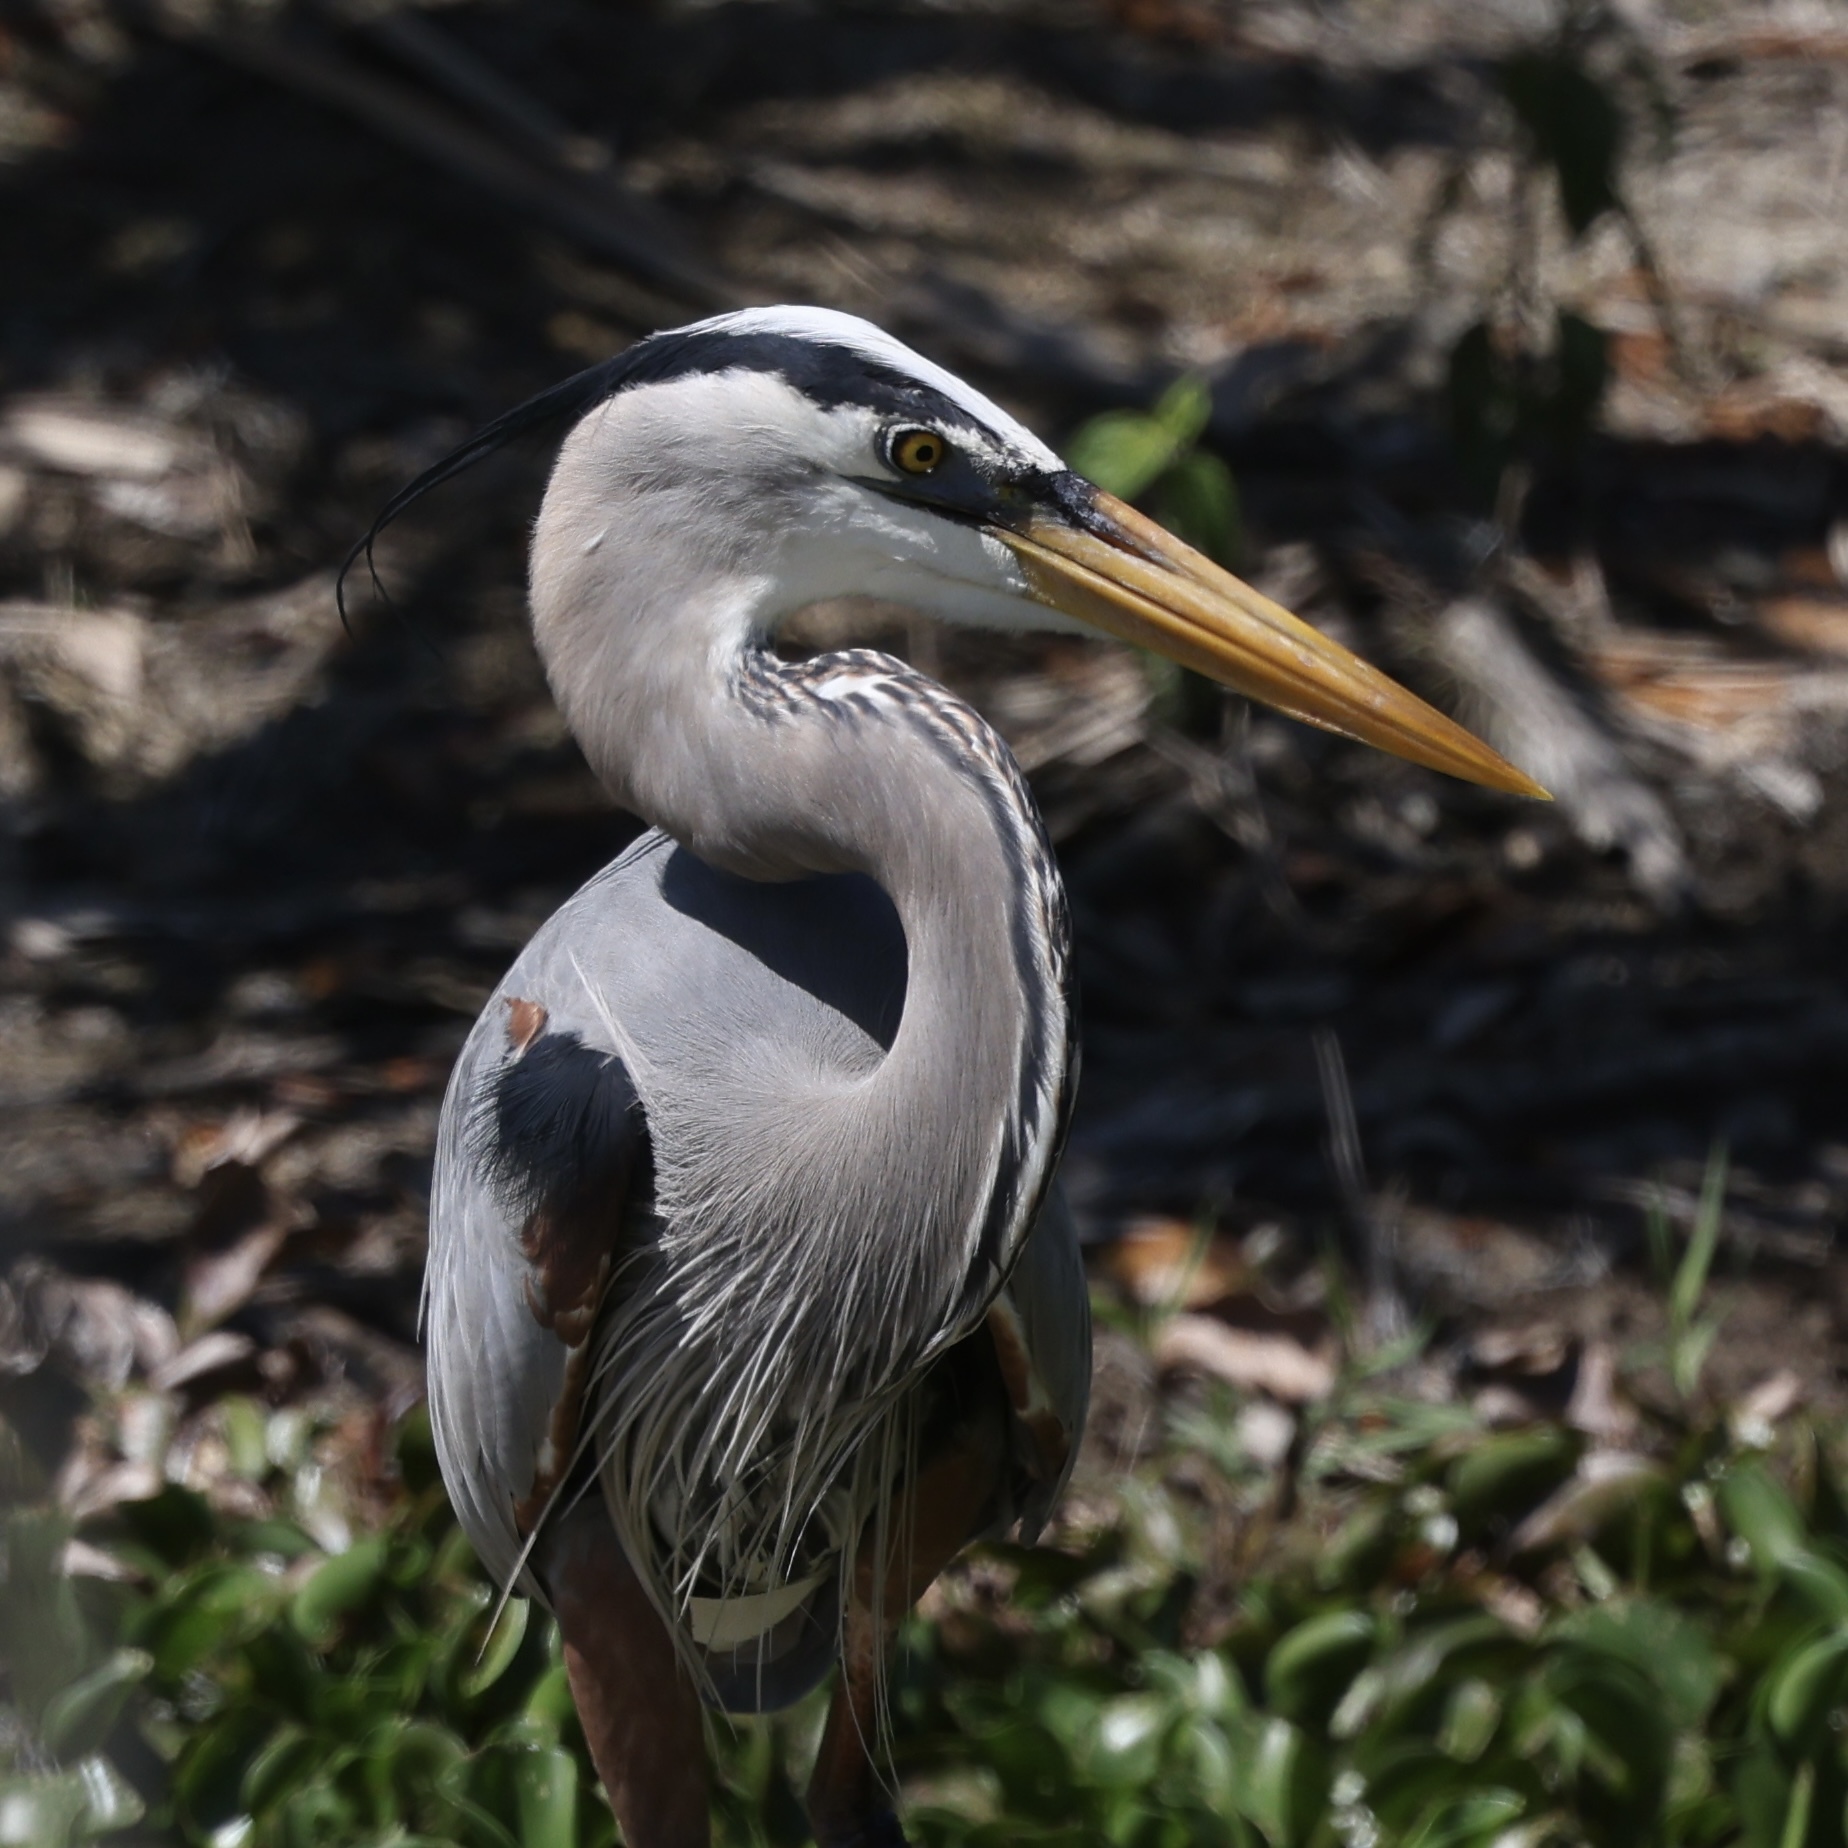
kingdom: Animalia
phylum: Chordata
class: Aves
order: Pelecaniformes
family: Ardeidae
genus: Ardea
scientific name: Ardea herodias
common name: Great blue heron
